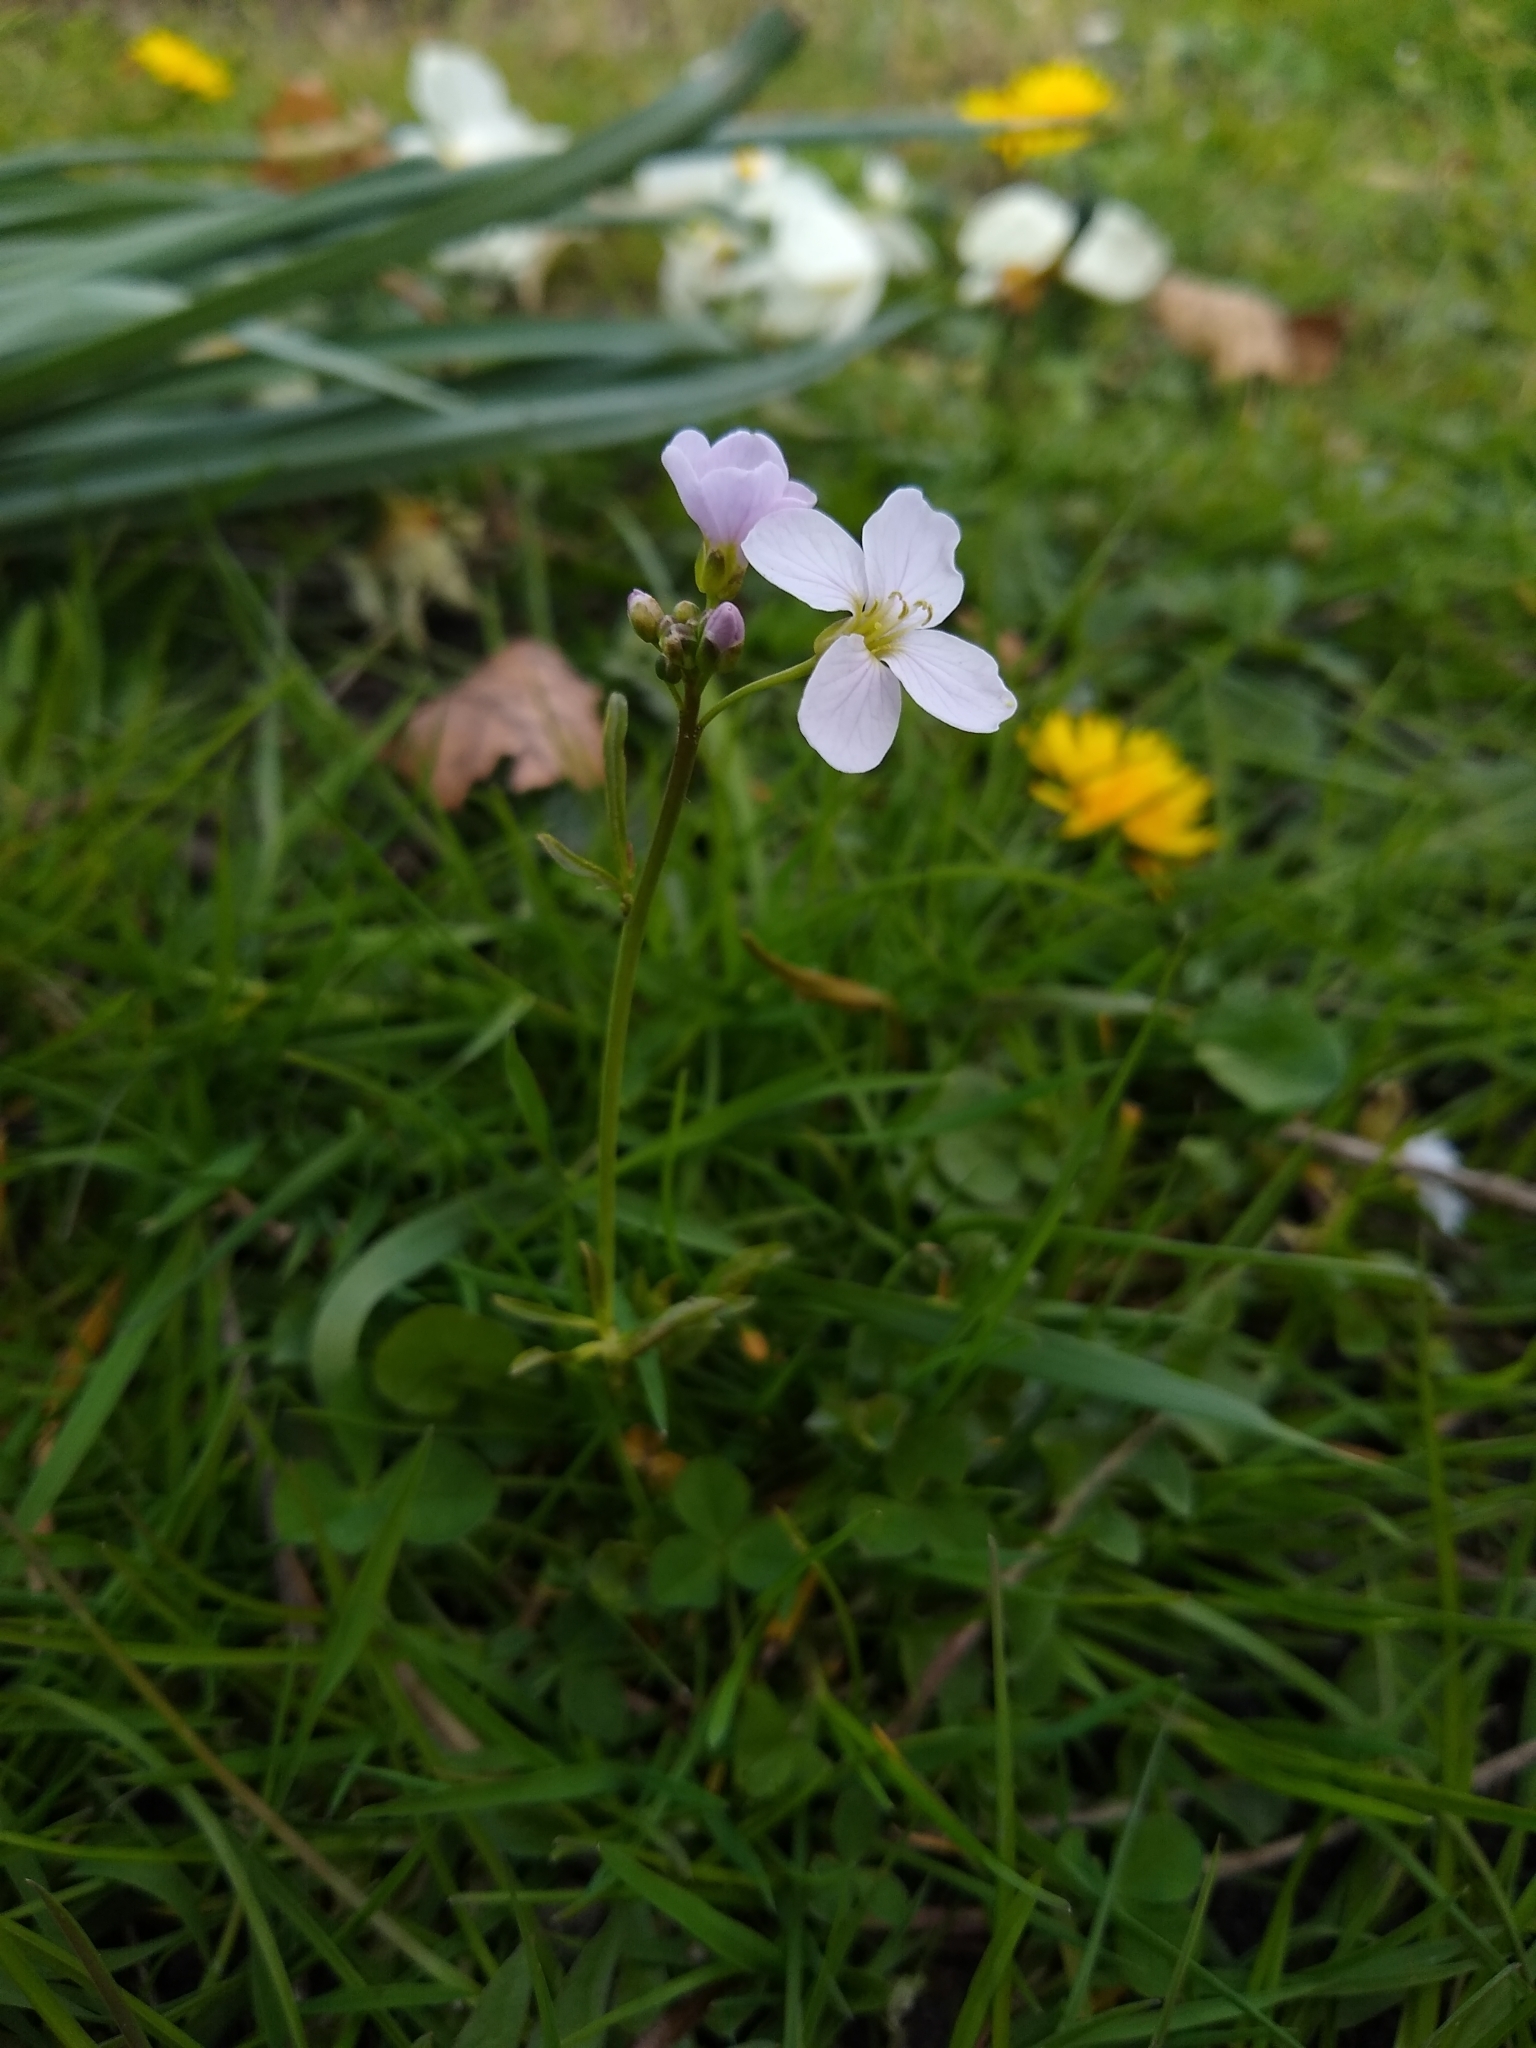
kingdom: Plantae
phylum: Tracheophyta
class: Magnoliopsida
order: Brassicales
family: Brassicaceae
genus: Cardamine
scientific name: Cardamine pratensis
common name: Cuckoo flower
